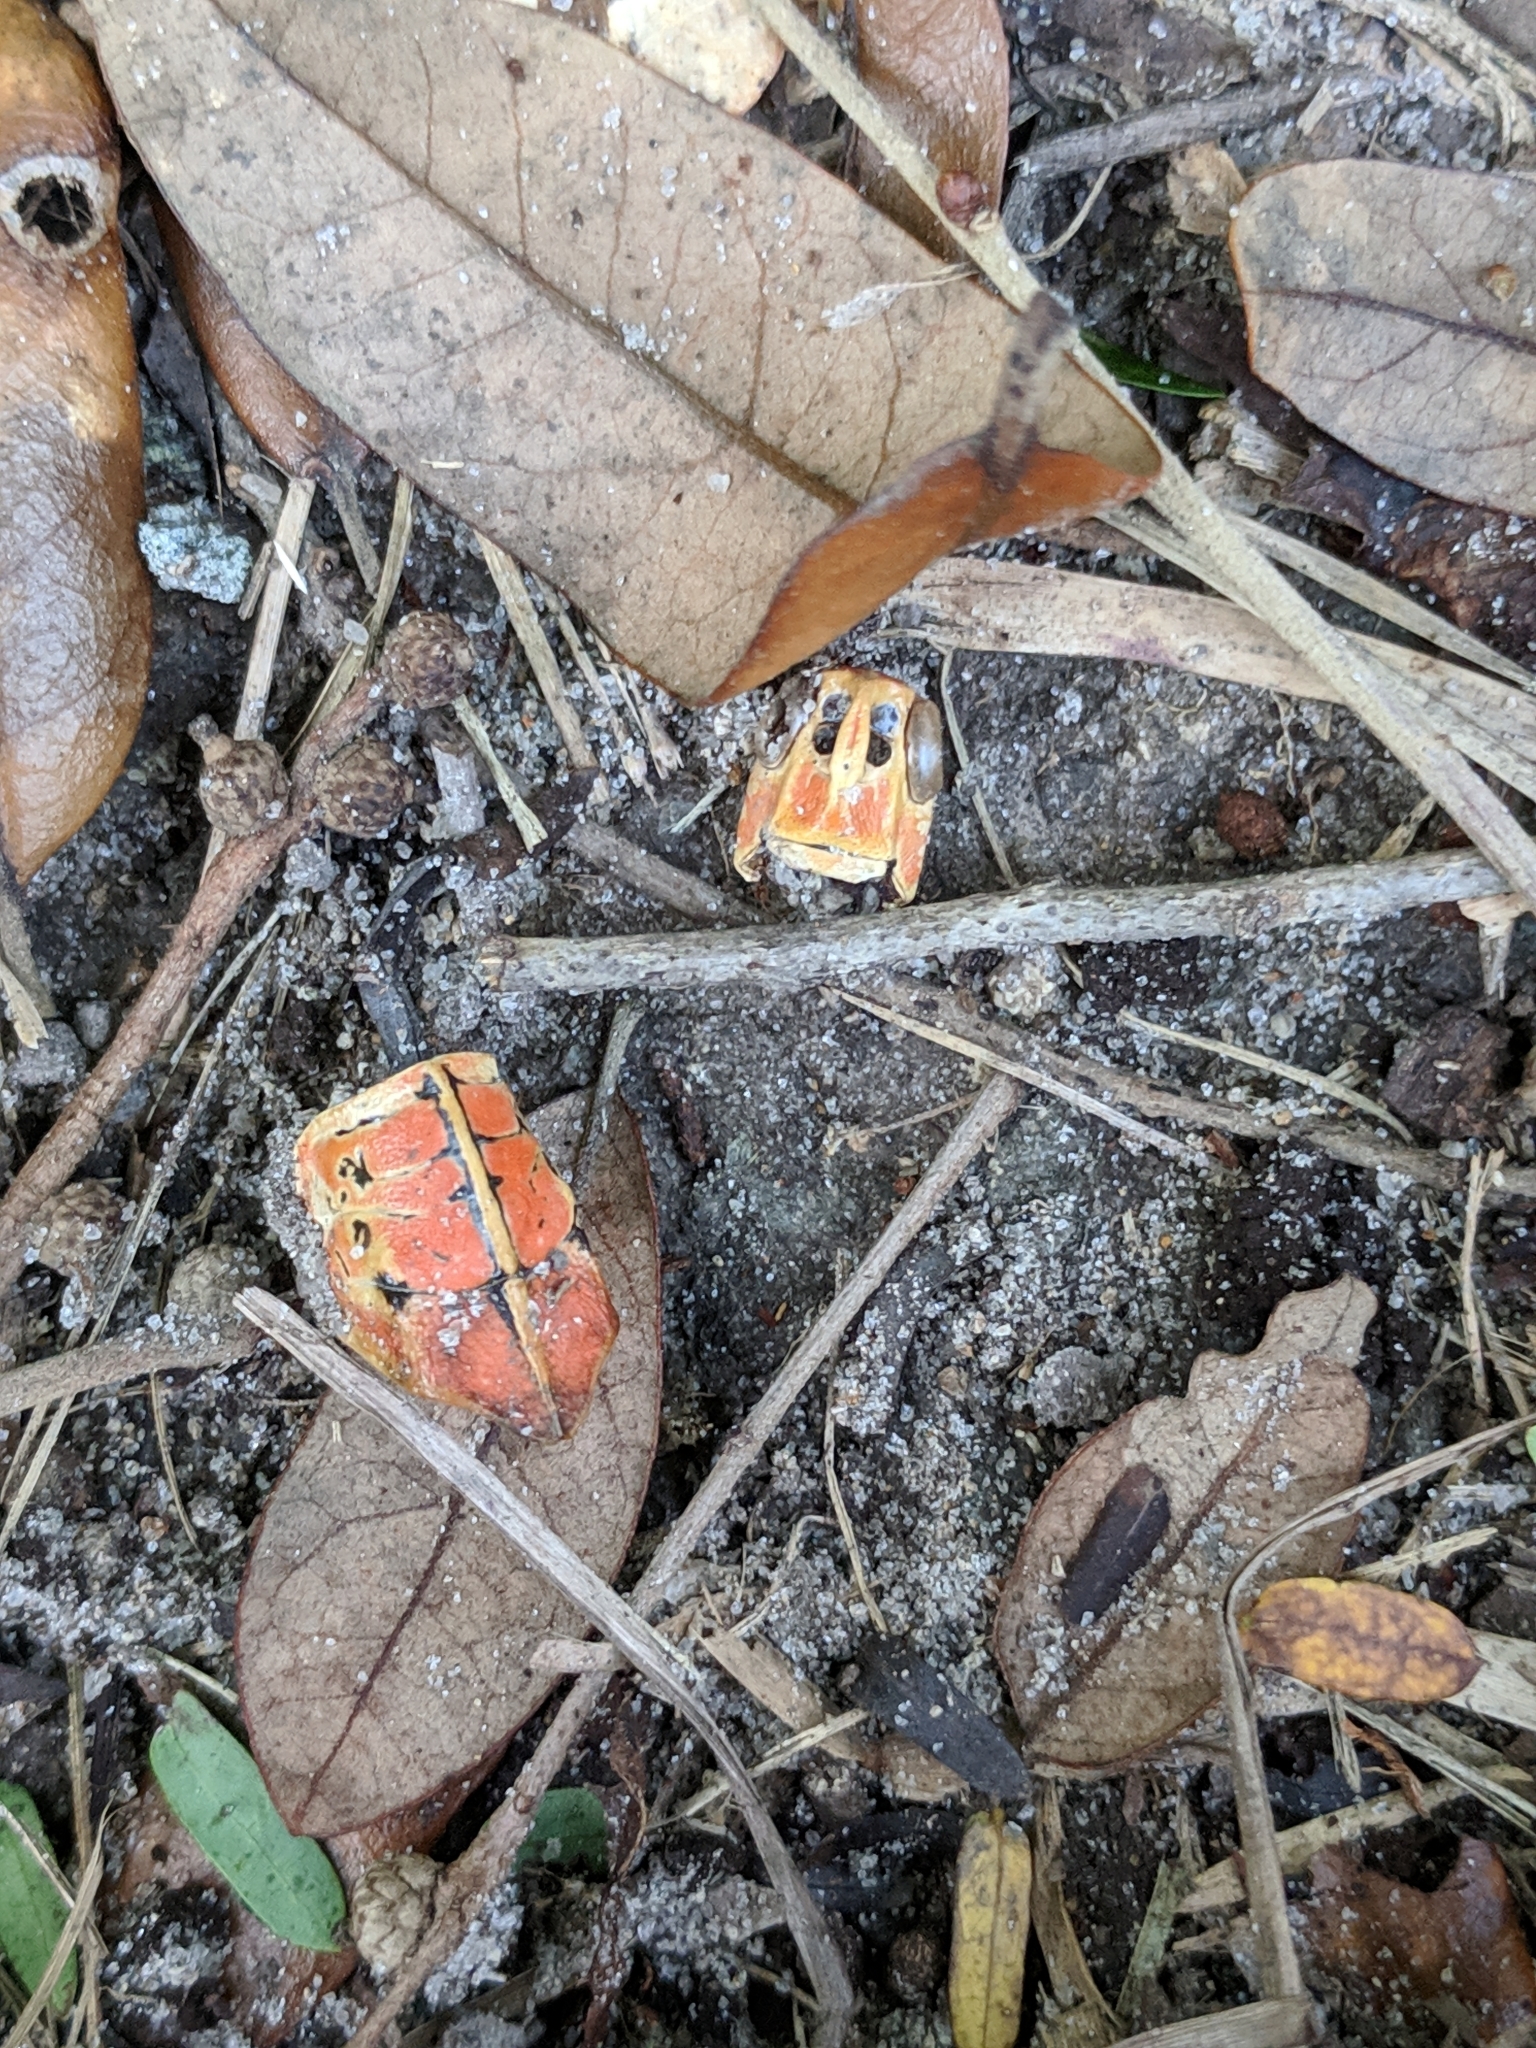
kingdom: Animalia
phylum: Arthropoda
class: Insecta
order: Orthoptera
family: Romaleidae
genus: Romalea
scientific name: Romalea microptera
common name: Eastern lubber grasshopper
